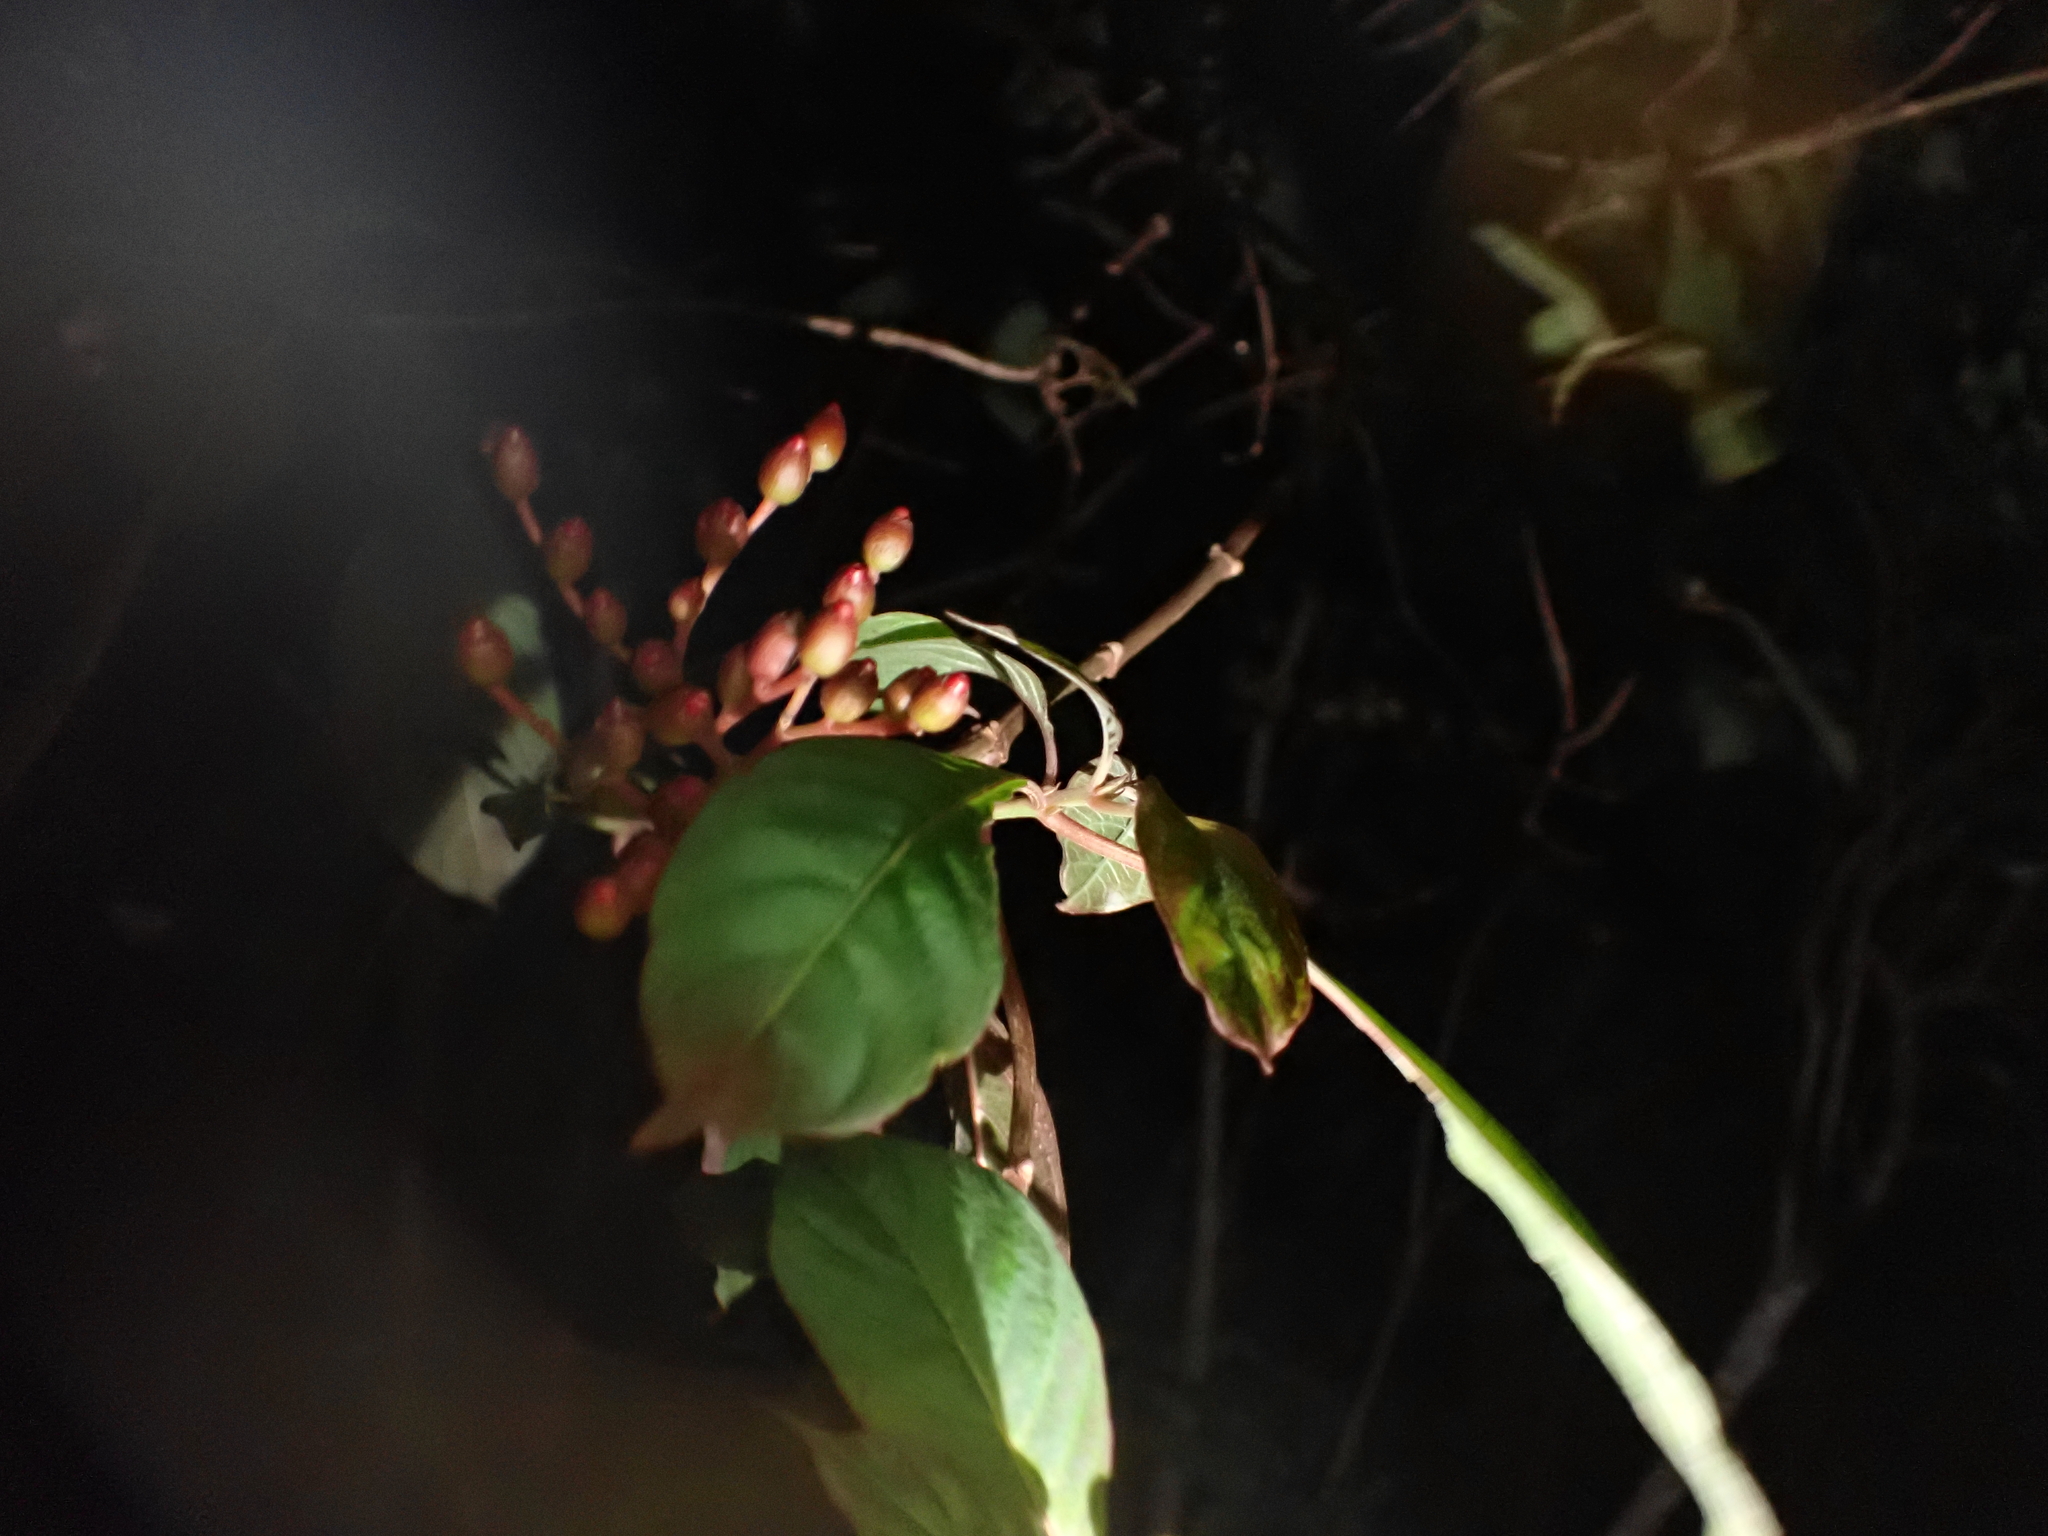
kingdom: Plantae
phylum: Tracheophyta
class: Magnoliopsida
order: Fabales
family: Fabaceae
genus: Sophora
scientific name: Sophora tomentosa
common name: Yellow necklacepod
